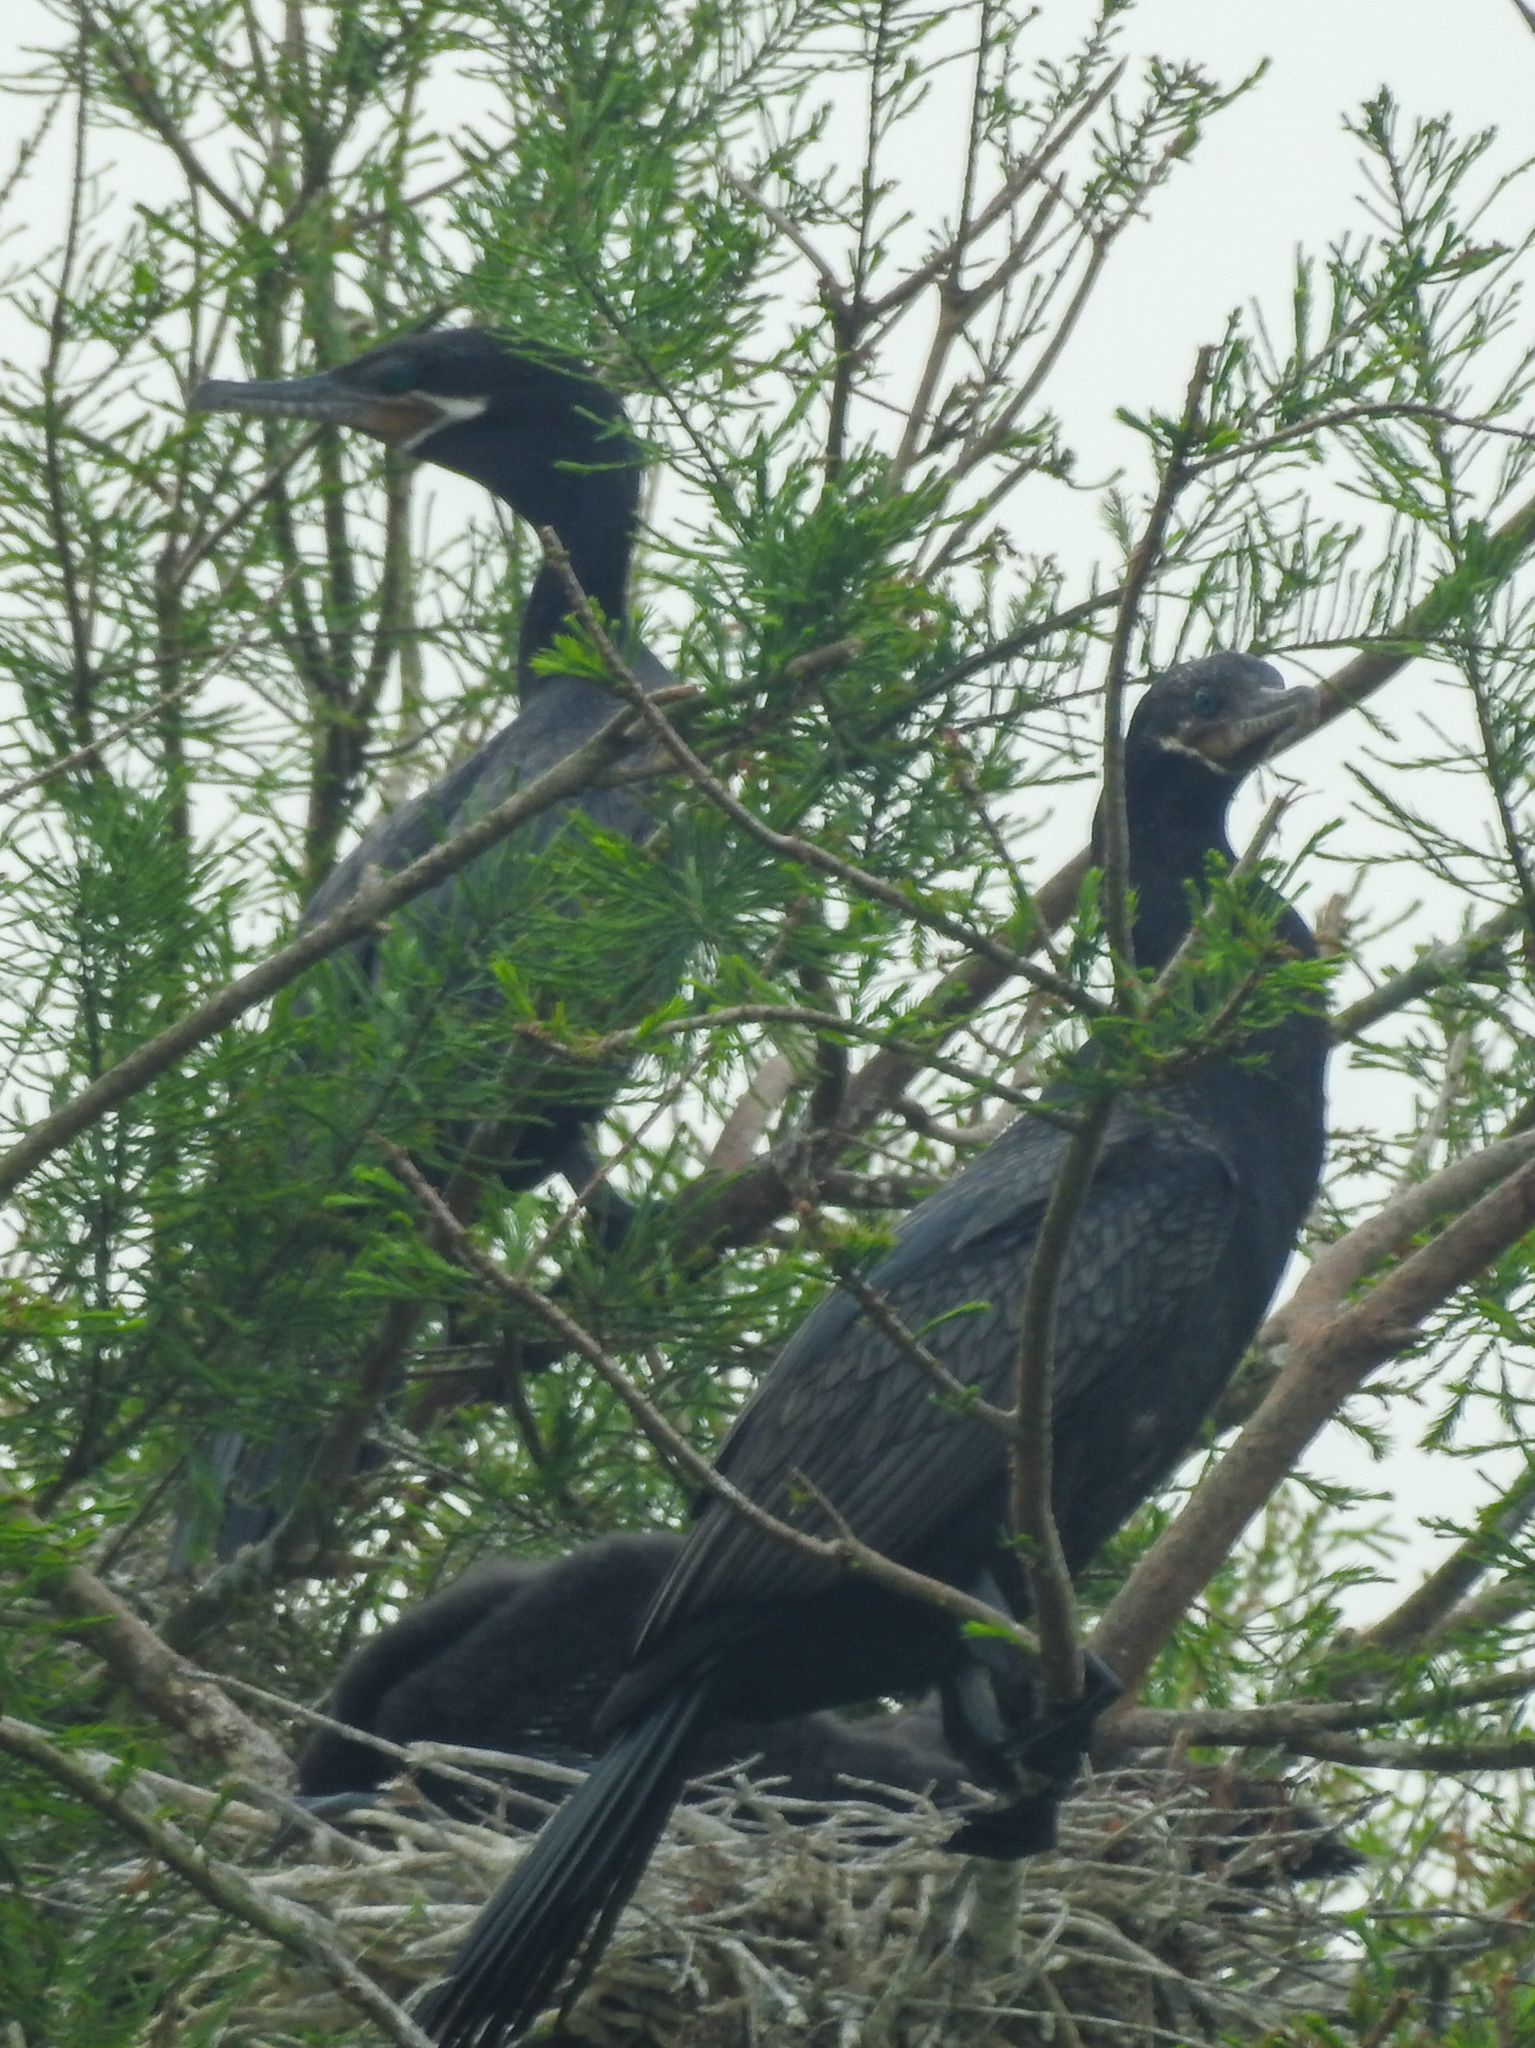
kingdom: Animalia
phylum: Chordata
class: Aves
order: Suliformes
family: Phalacrocoracidae
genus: Phalacrocorax
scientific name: Phalacrocorax brasilianus
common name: Neotropic cormorant
